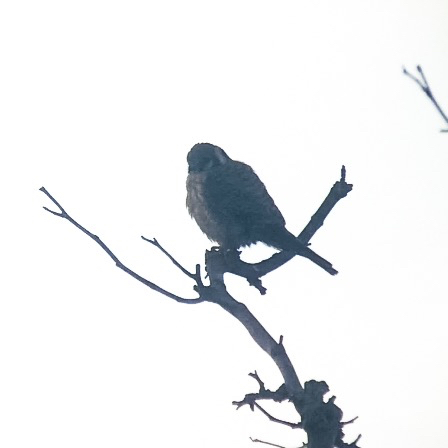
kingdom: Animalia
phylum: Chordata
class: Aves
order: Falconiformes
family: Falconidae
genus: Falco
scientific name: Falco sparverius
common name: American kestrel
